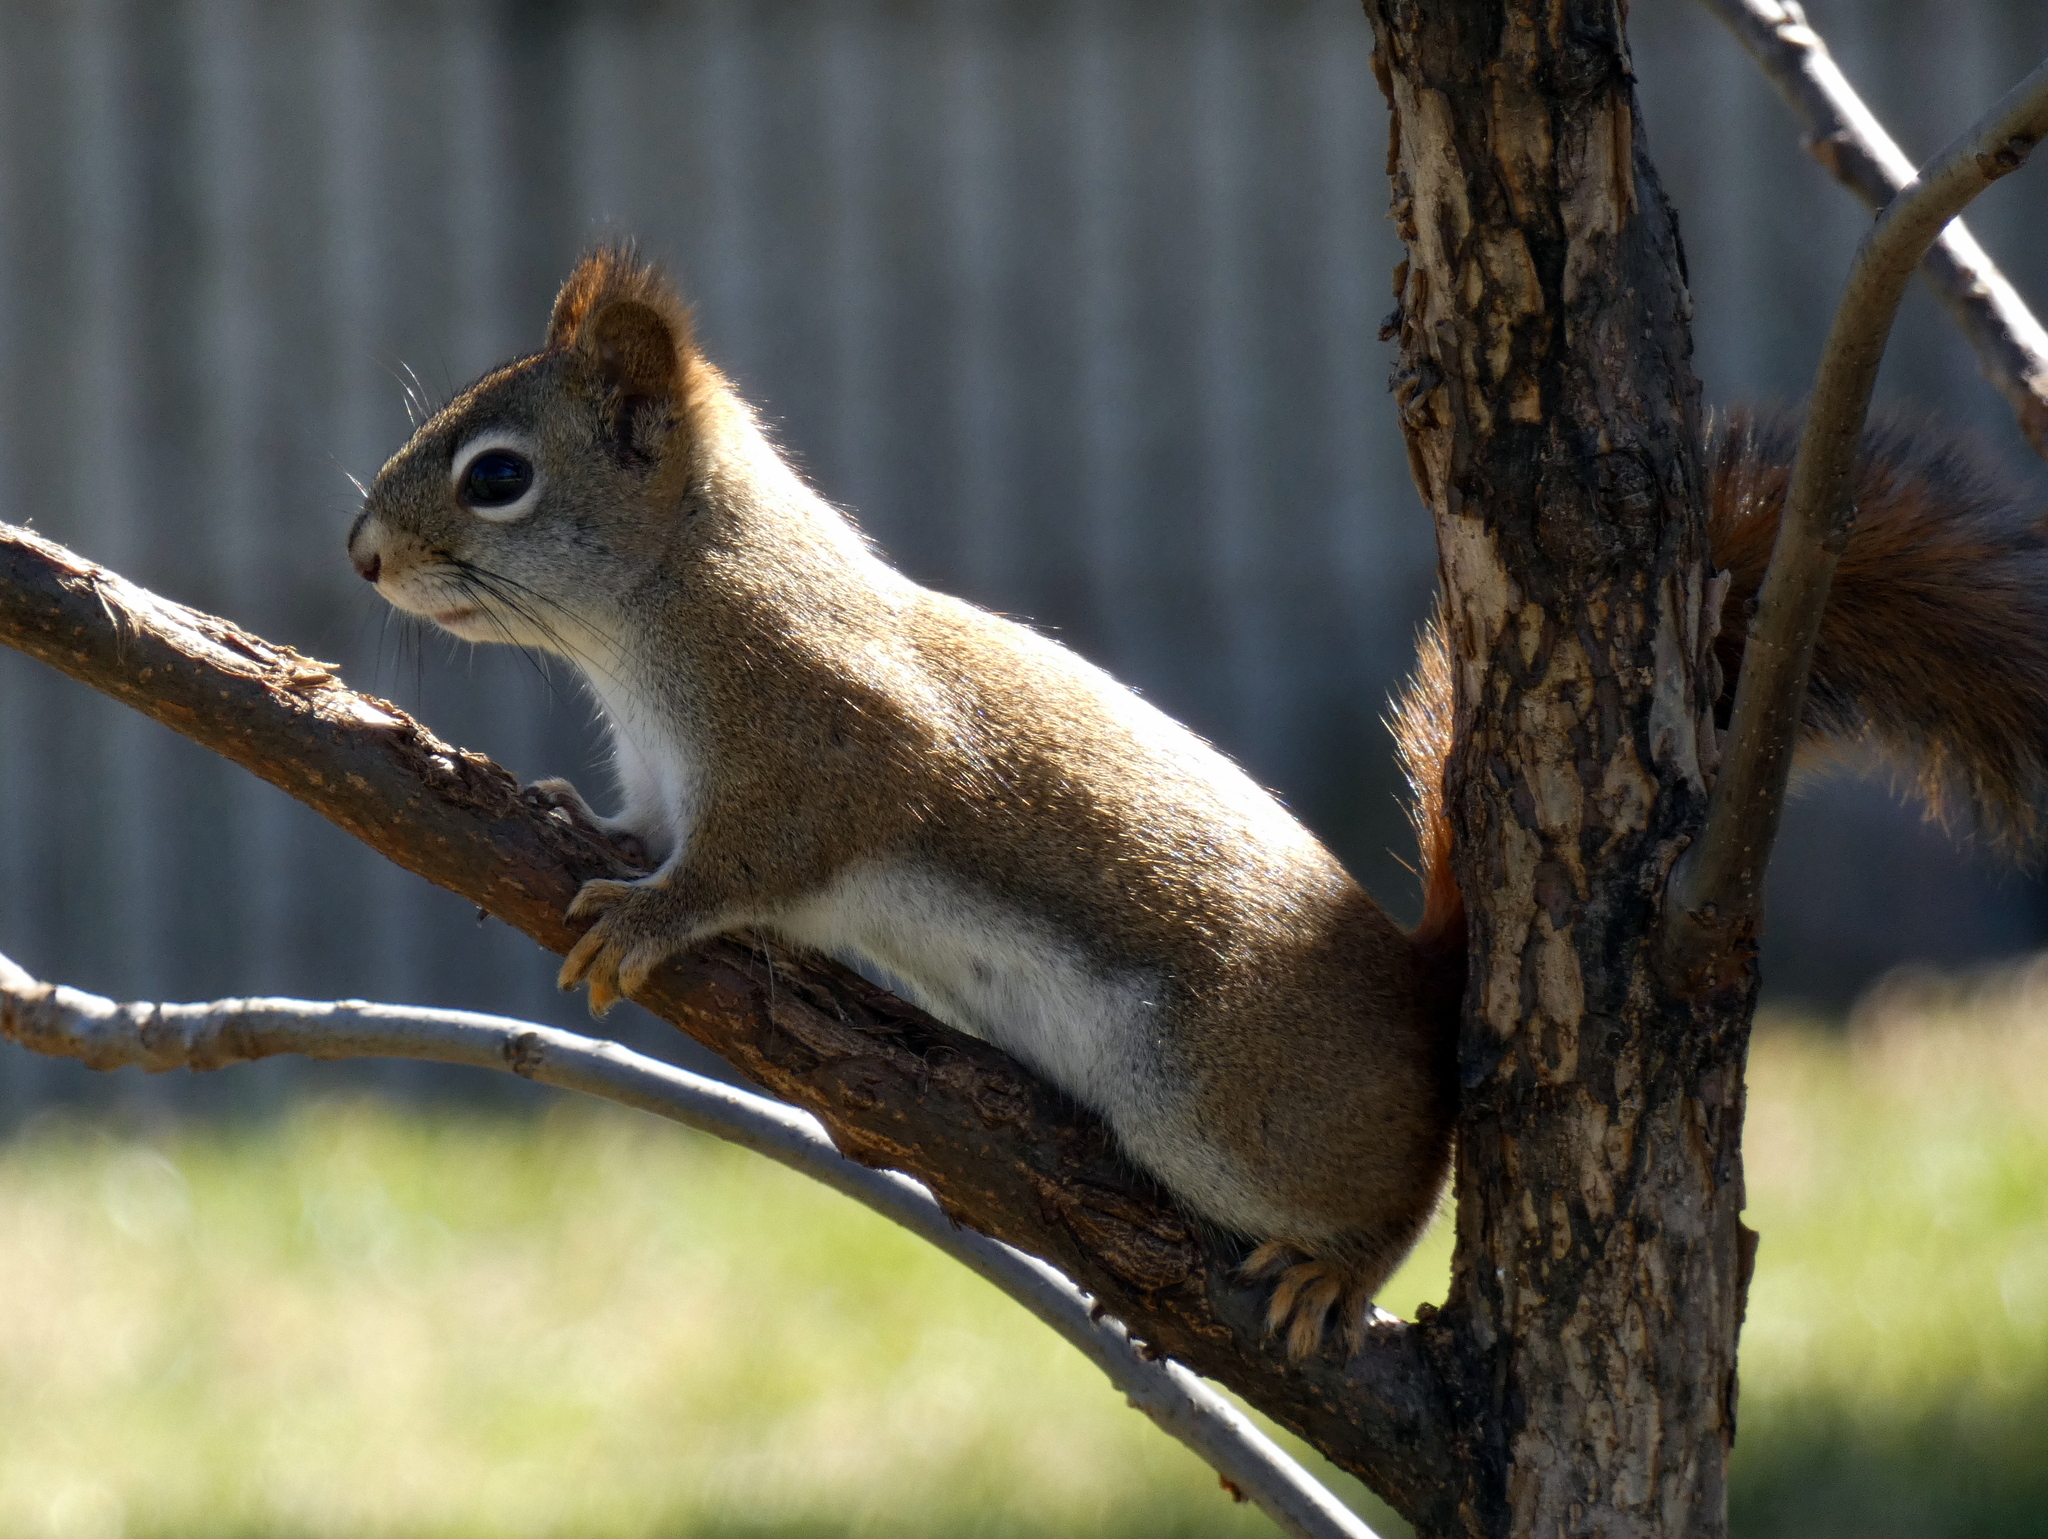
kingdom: Animalia
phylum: Chordata
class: Mammalia
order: Rodentia
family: Sciuridae
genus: Tamiasciurus
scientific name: Tamiasciurus hudsonicus
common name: Red squirrel
